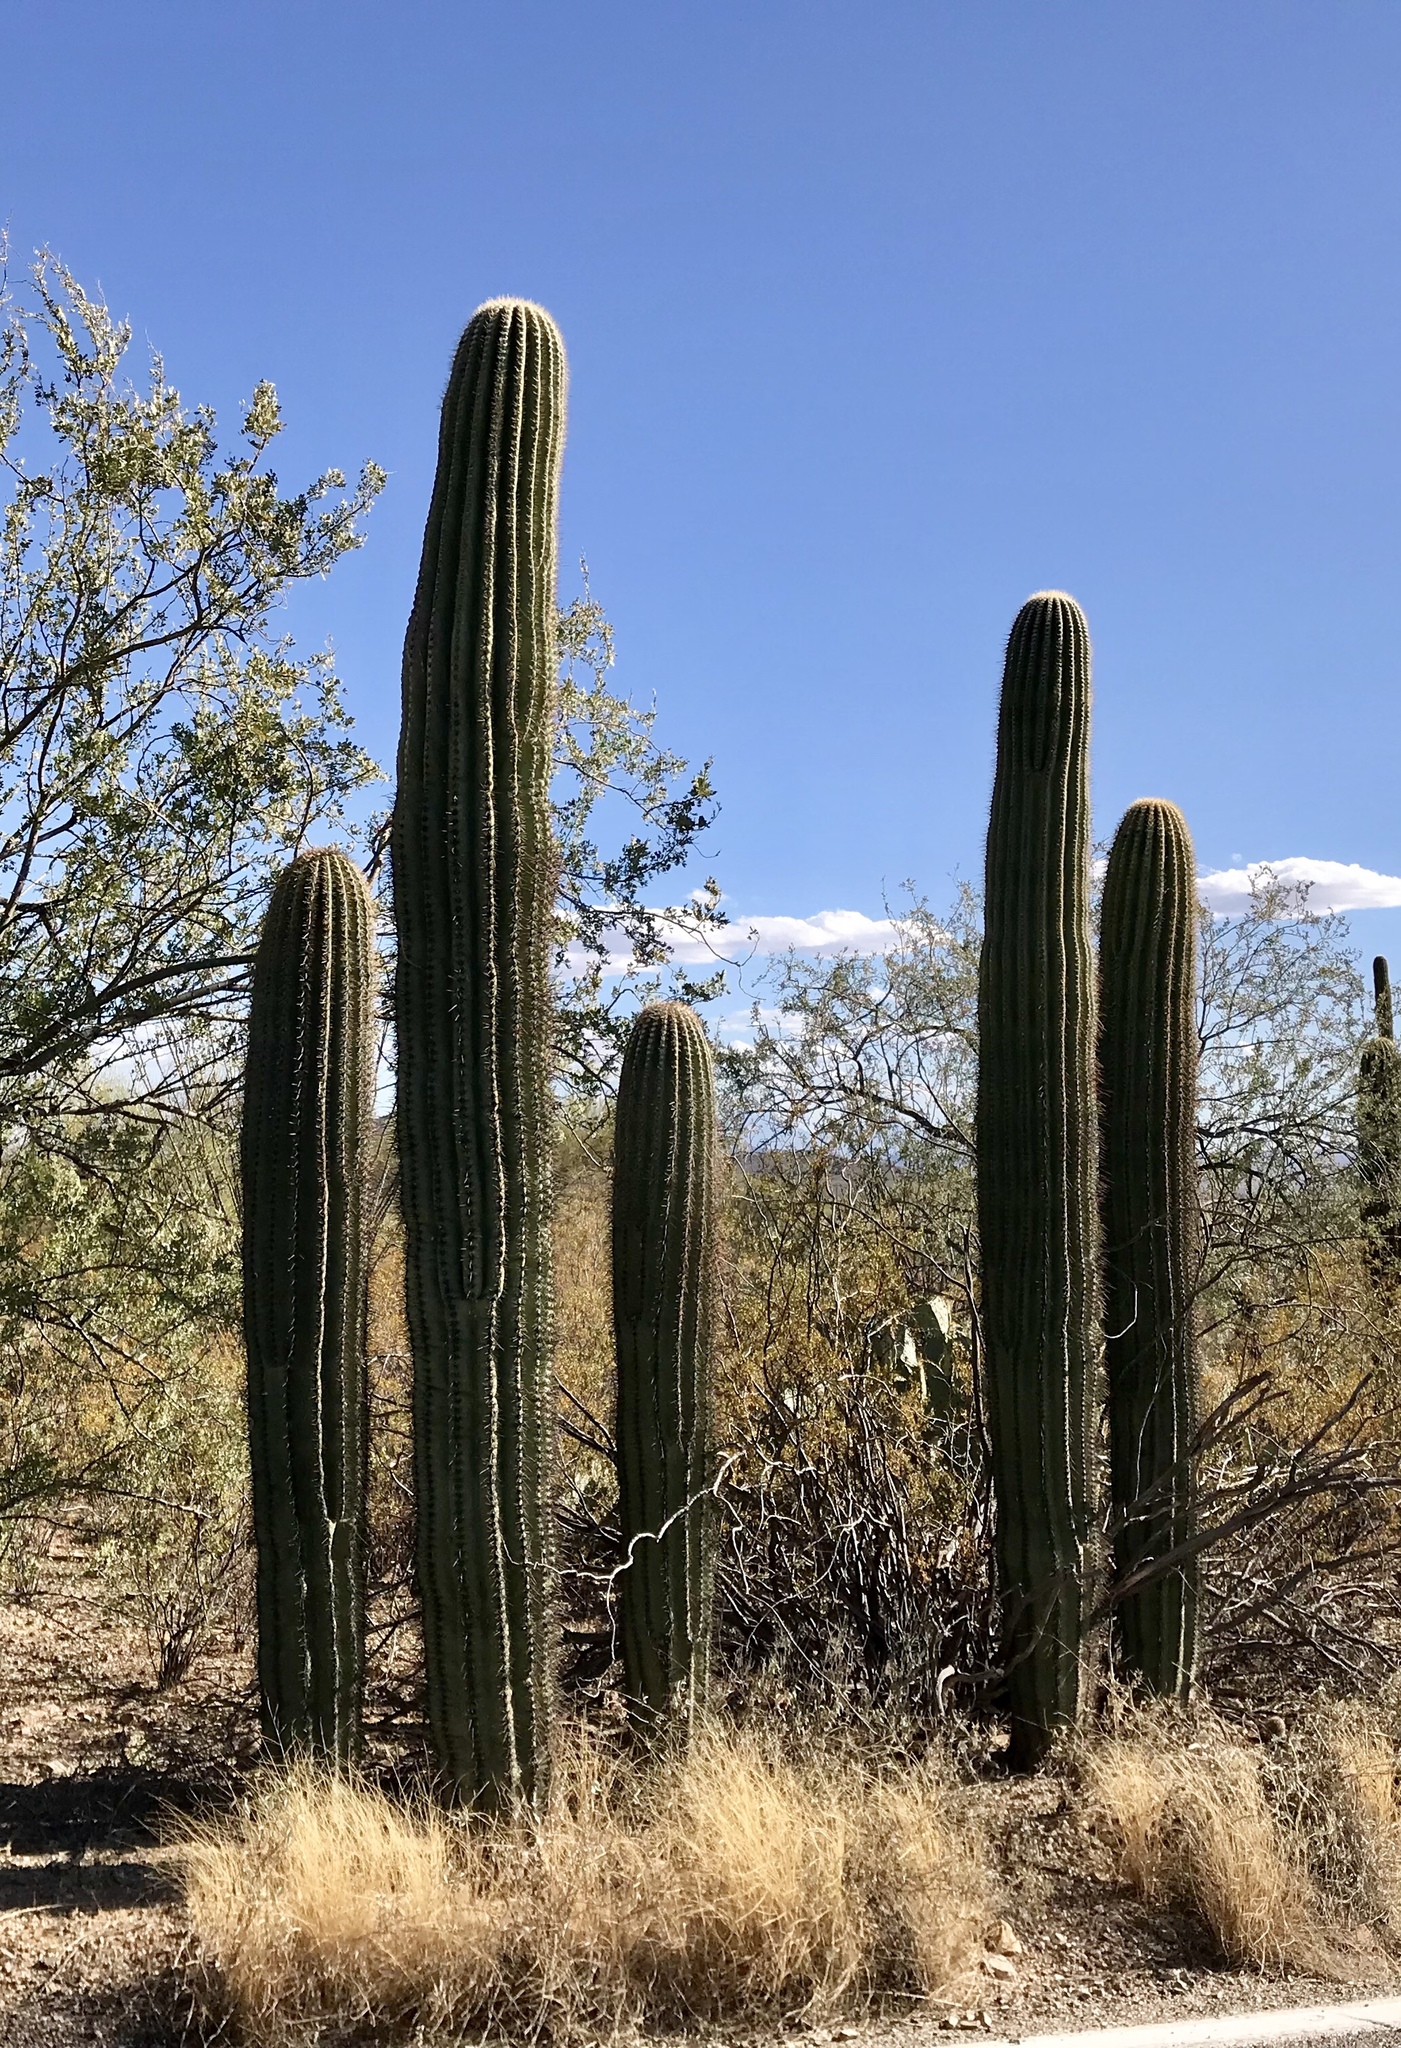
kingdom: Plantae
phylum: Tracheophyta
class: Magnoliopsida
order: Caryophyllales
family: Cactaceae
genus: Carnegiea
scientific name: Carnegiea gigantea
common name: Saguaro
